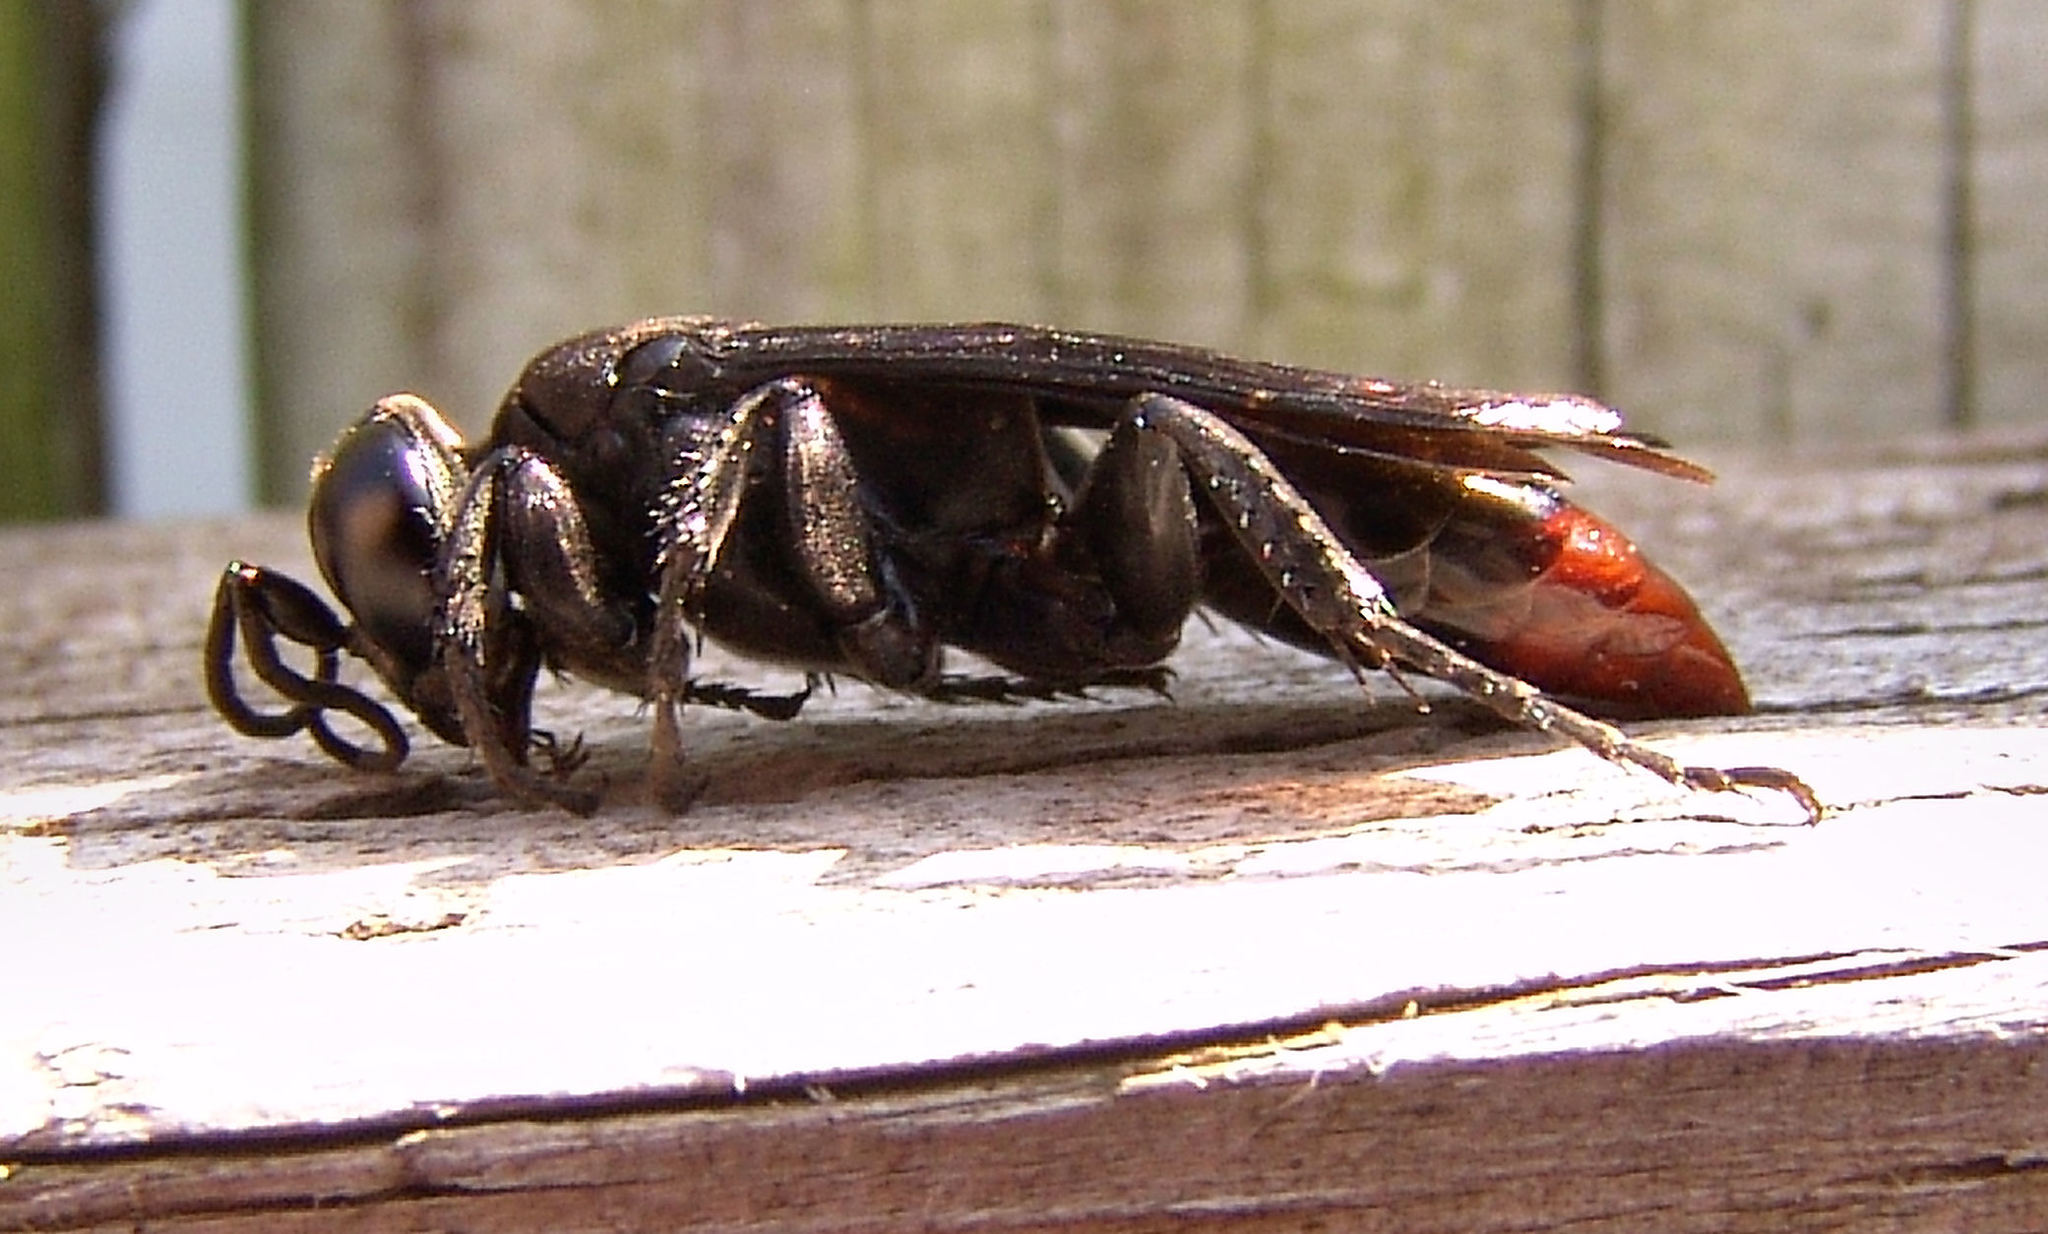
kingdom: Animalia
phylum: Arthropoda
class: Insecta
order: Hymenoptera
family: Crabronidae
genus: Larra
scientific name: Larra analis
